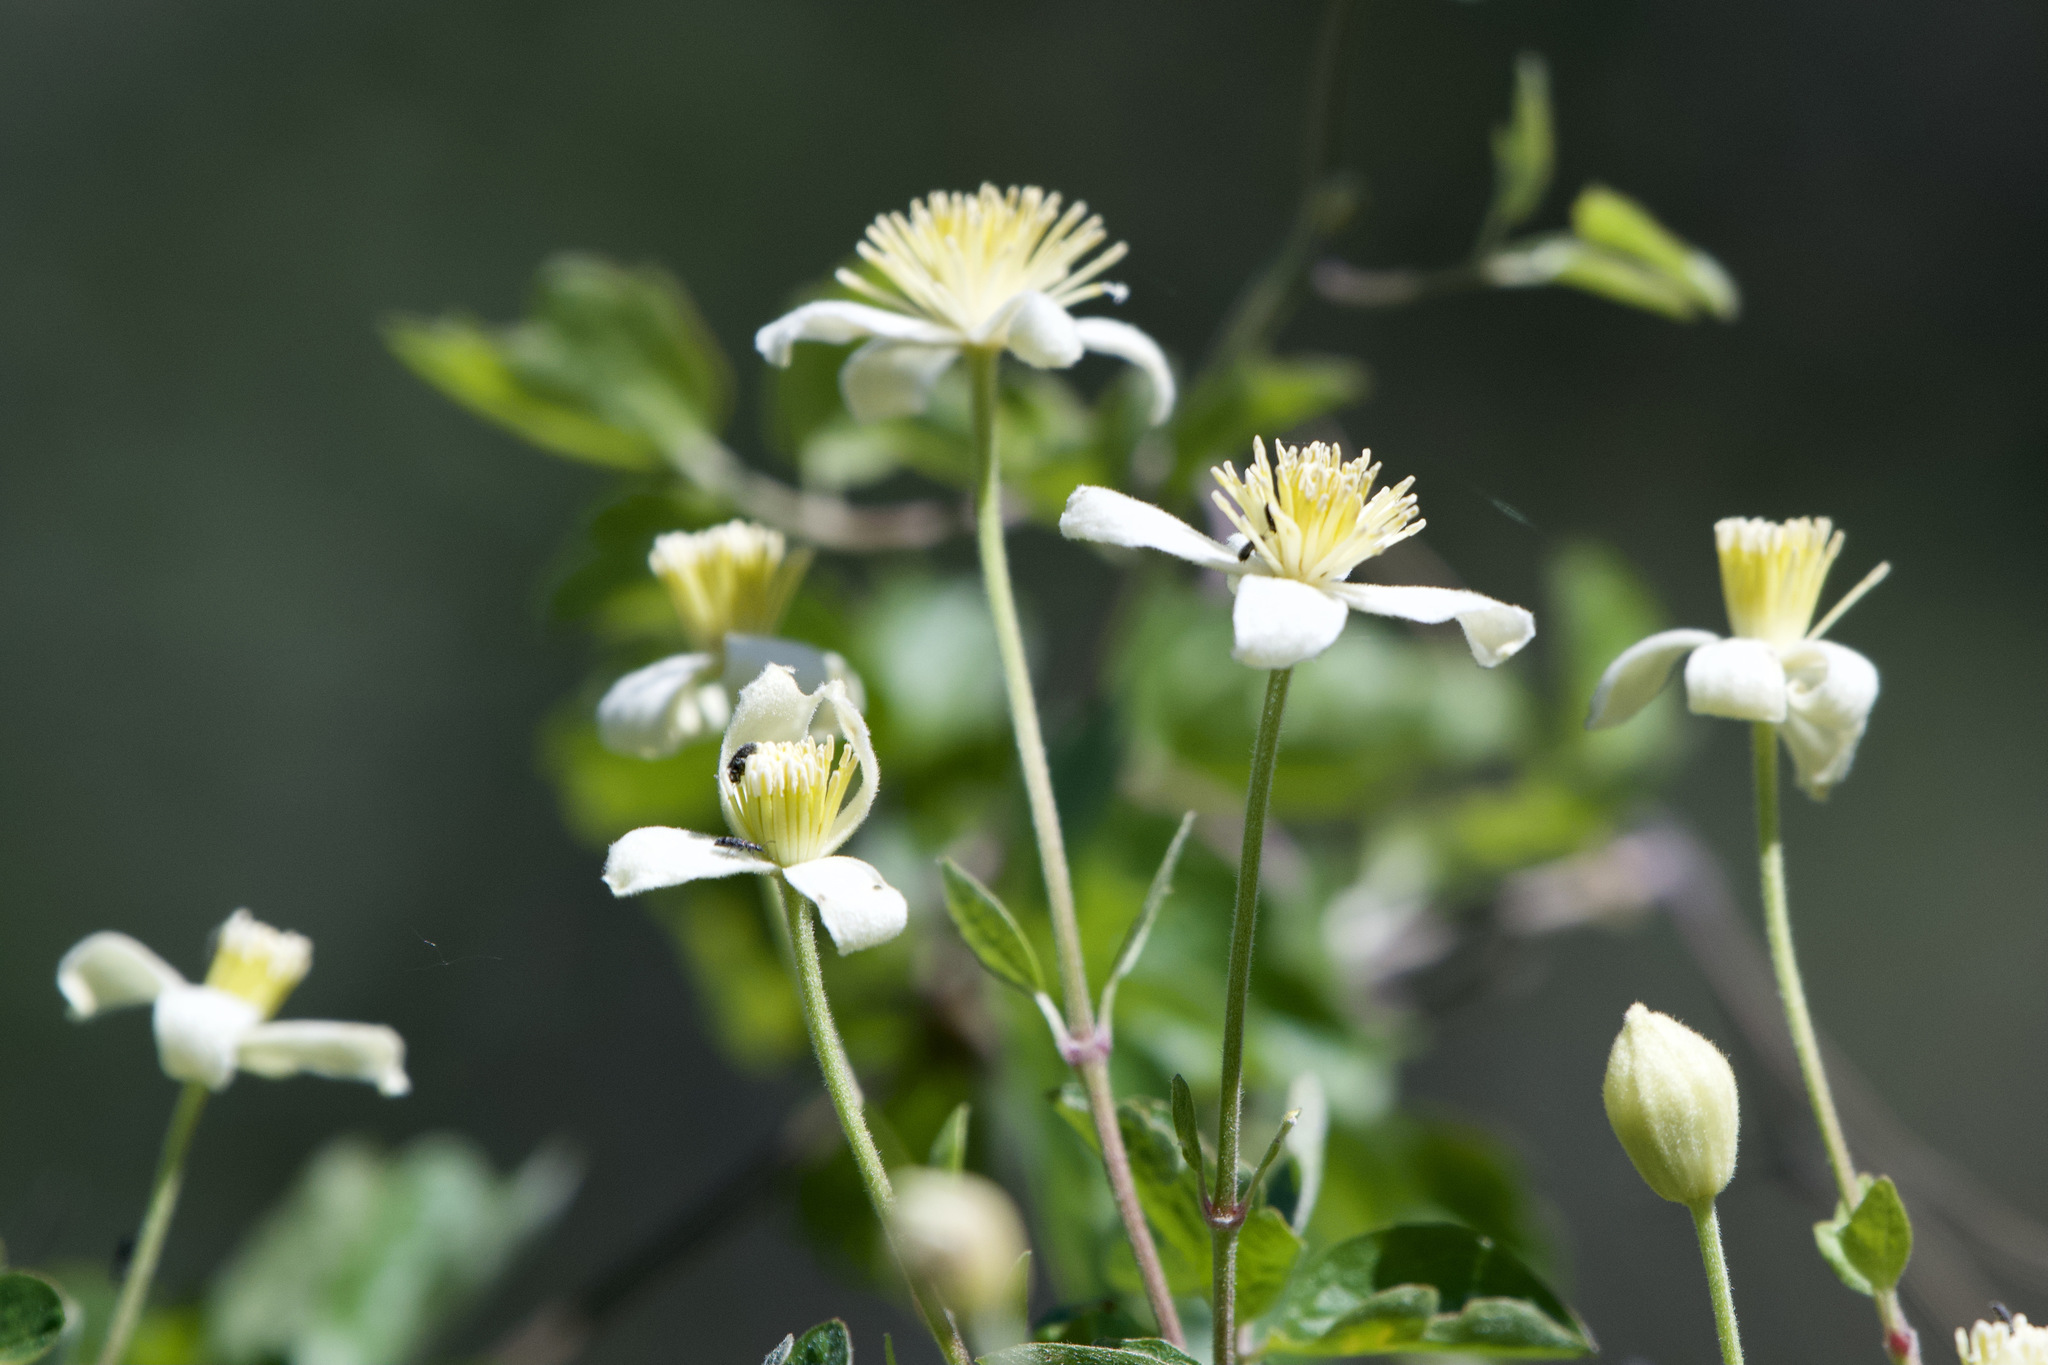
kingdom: Plantae
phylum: Tracheophyta
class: Magnoliopsida
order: Ranunculales
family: Ranunculaceae
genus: Clematis
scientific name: Clematis lasiantha
